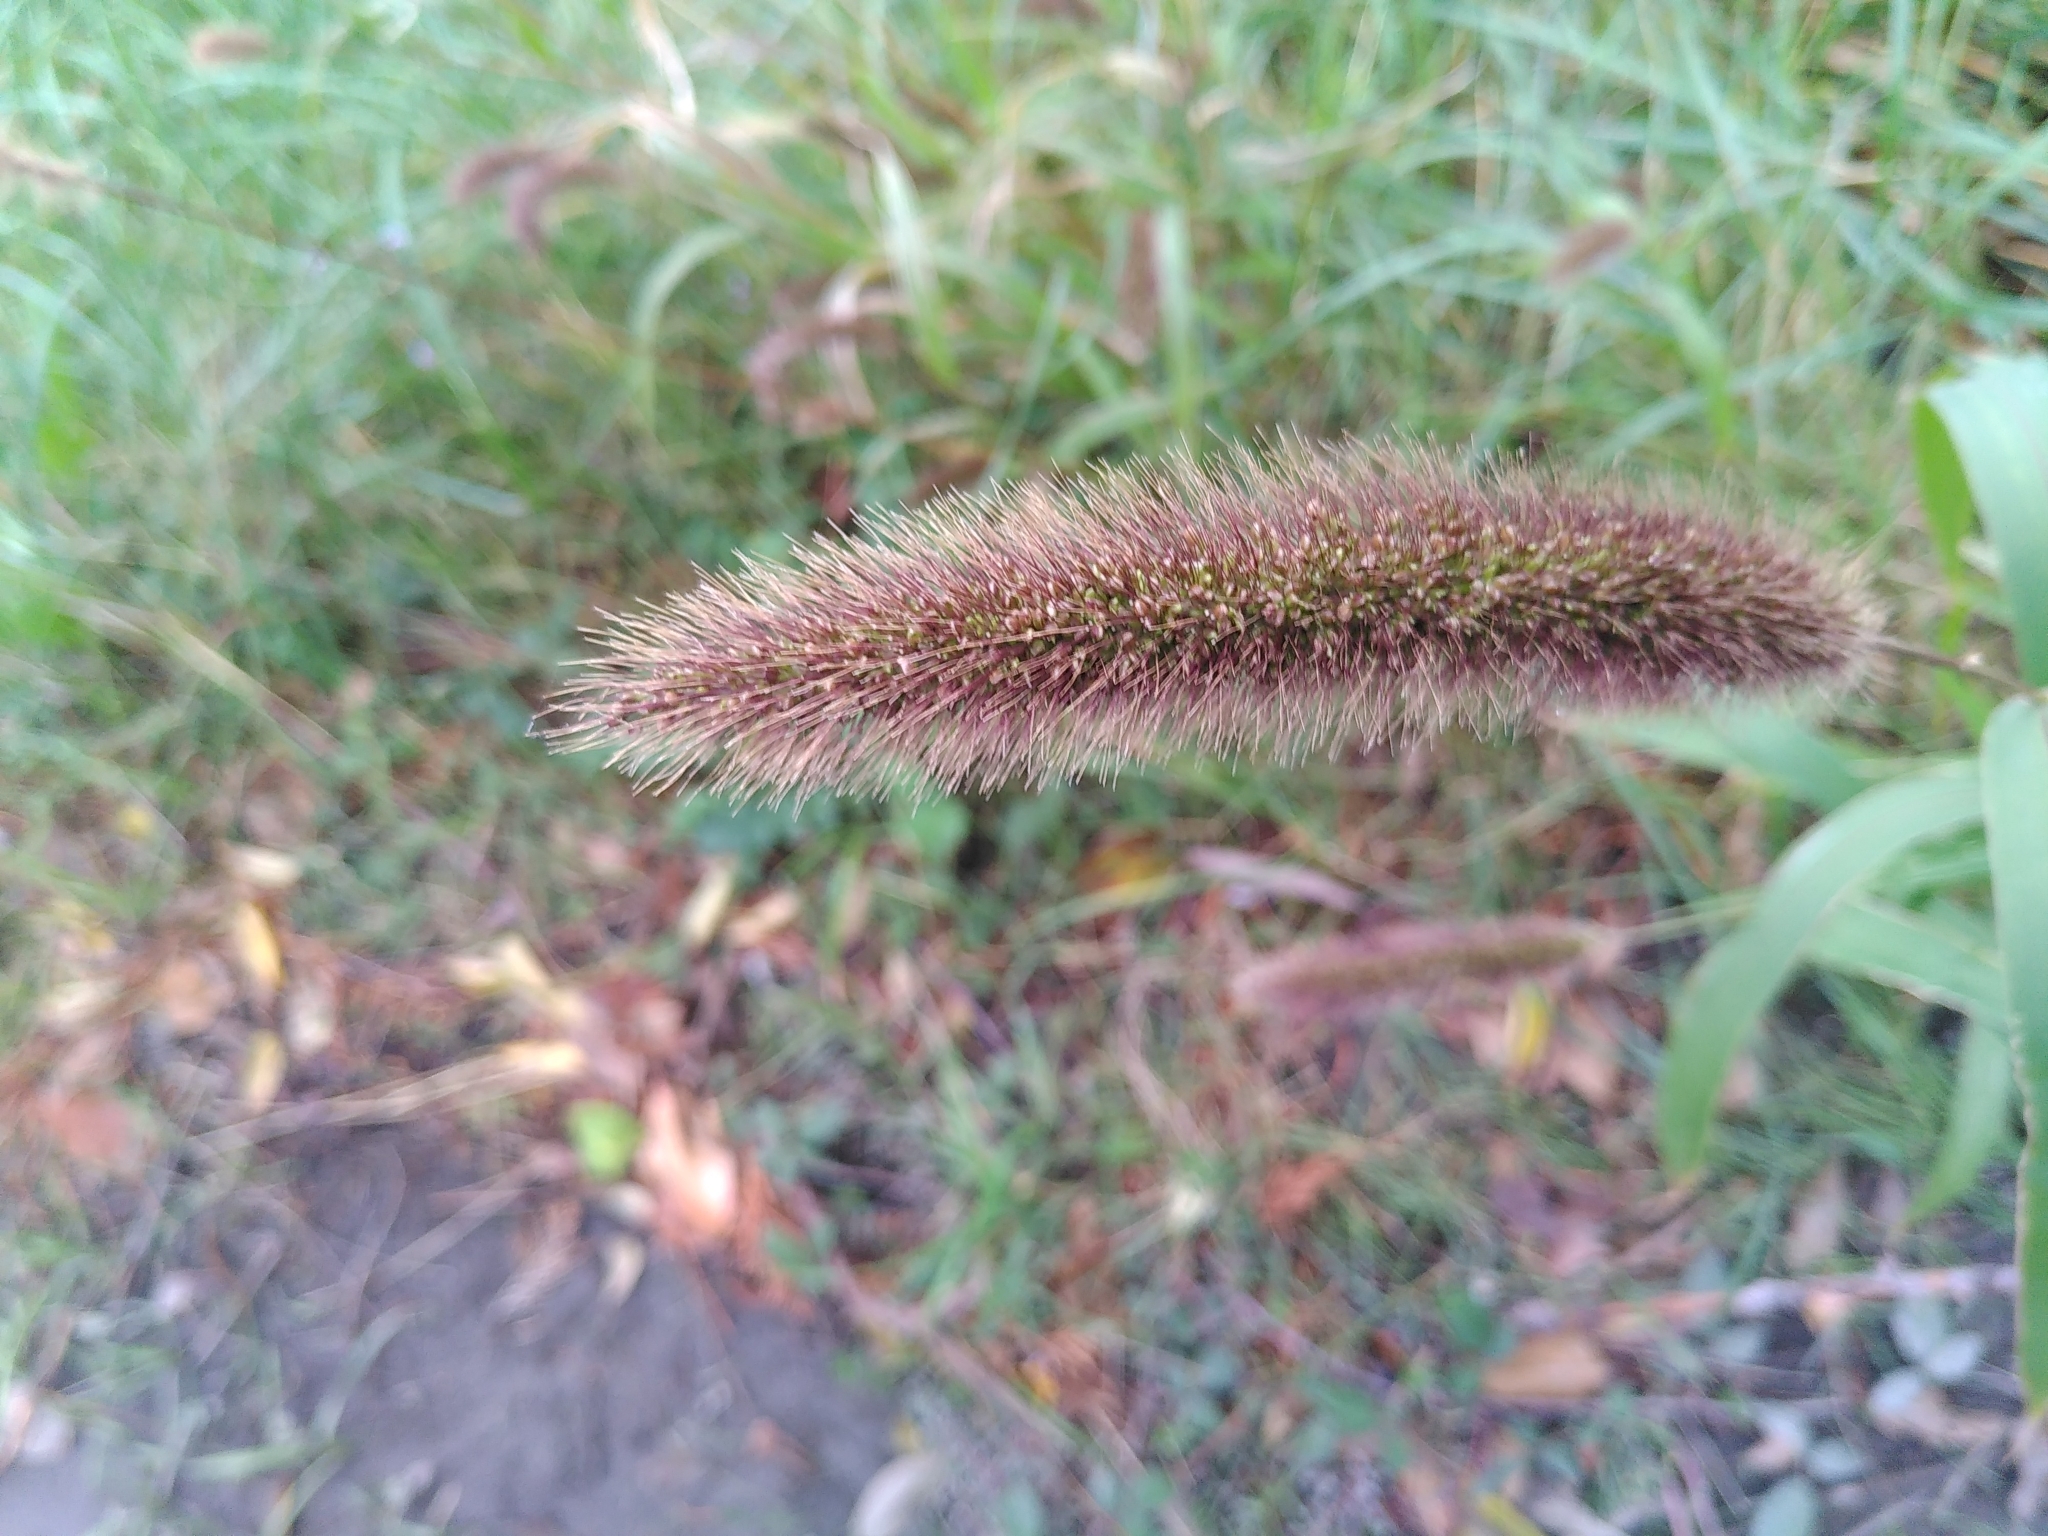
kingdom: Plantae
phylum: Tracheophyta
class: Liliopsida
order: Poales
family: Poaceae
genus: Setaria
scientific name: Setaria viridis
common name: Green bristlegrass
